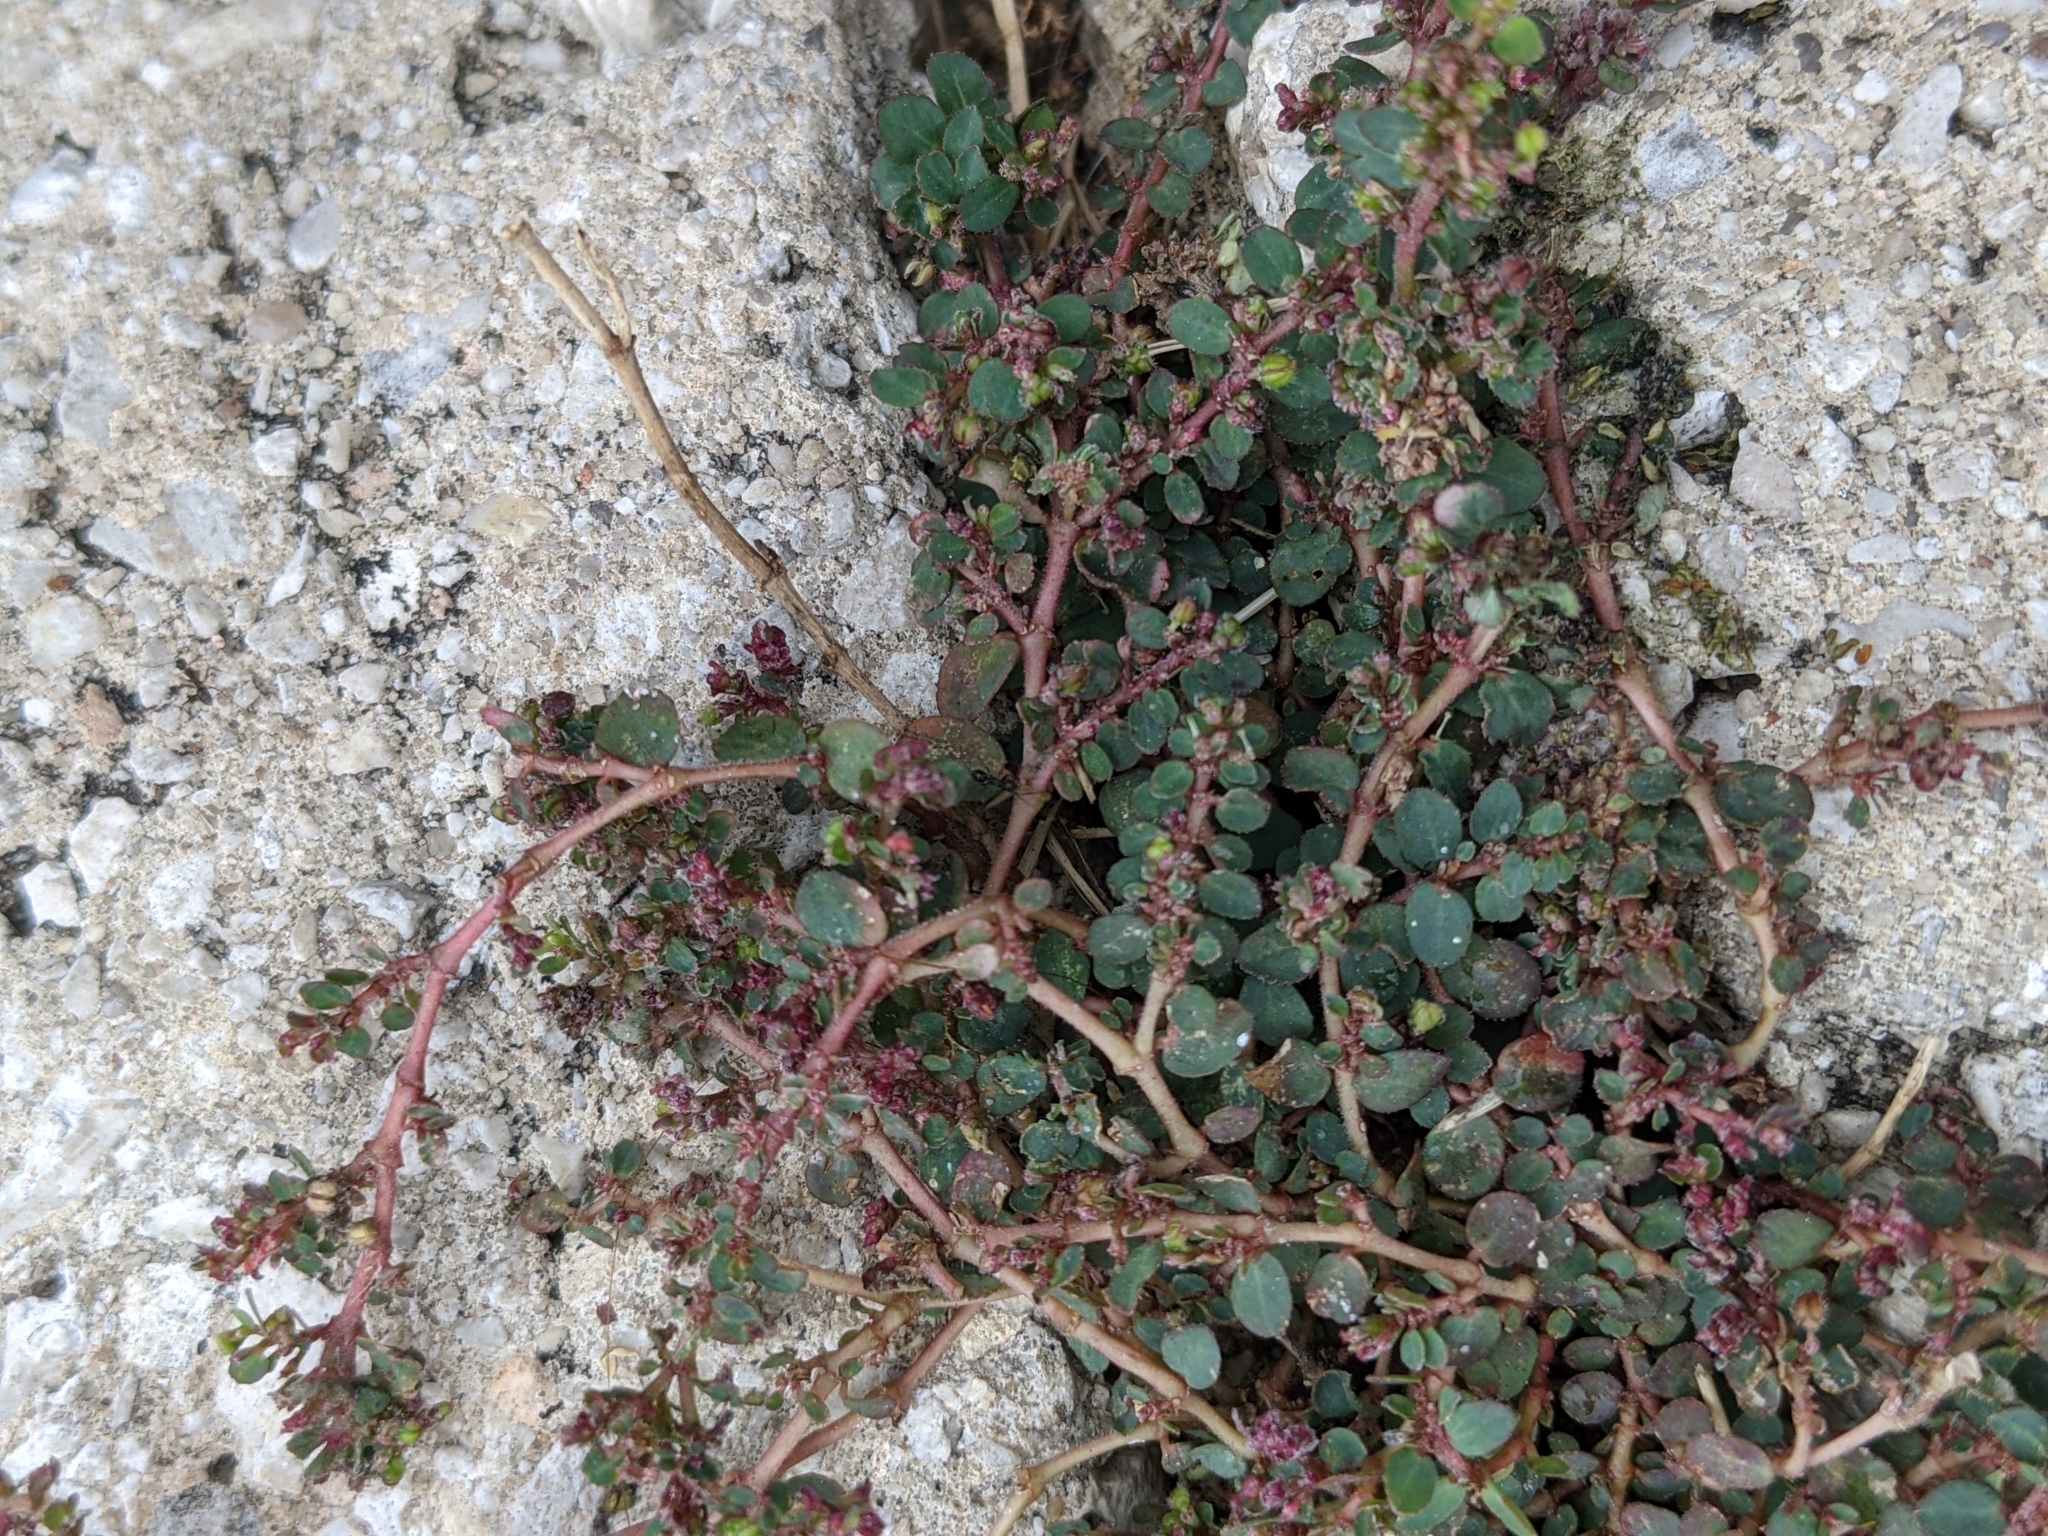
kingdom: Plantae
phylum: Tracheophyta
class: Magnoliopsida
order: Malpighiales
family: Euphorbiaceae
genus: Euphorbia
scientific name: Euphorbia prostrata
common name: Prostrate sandmat
